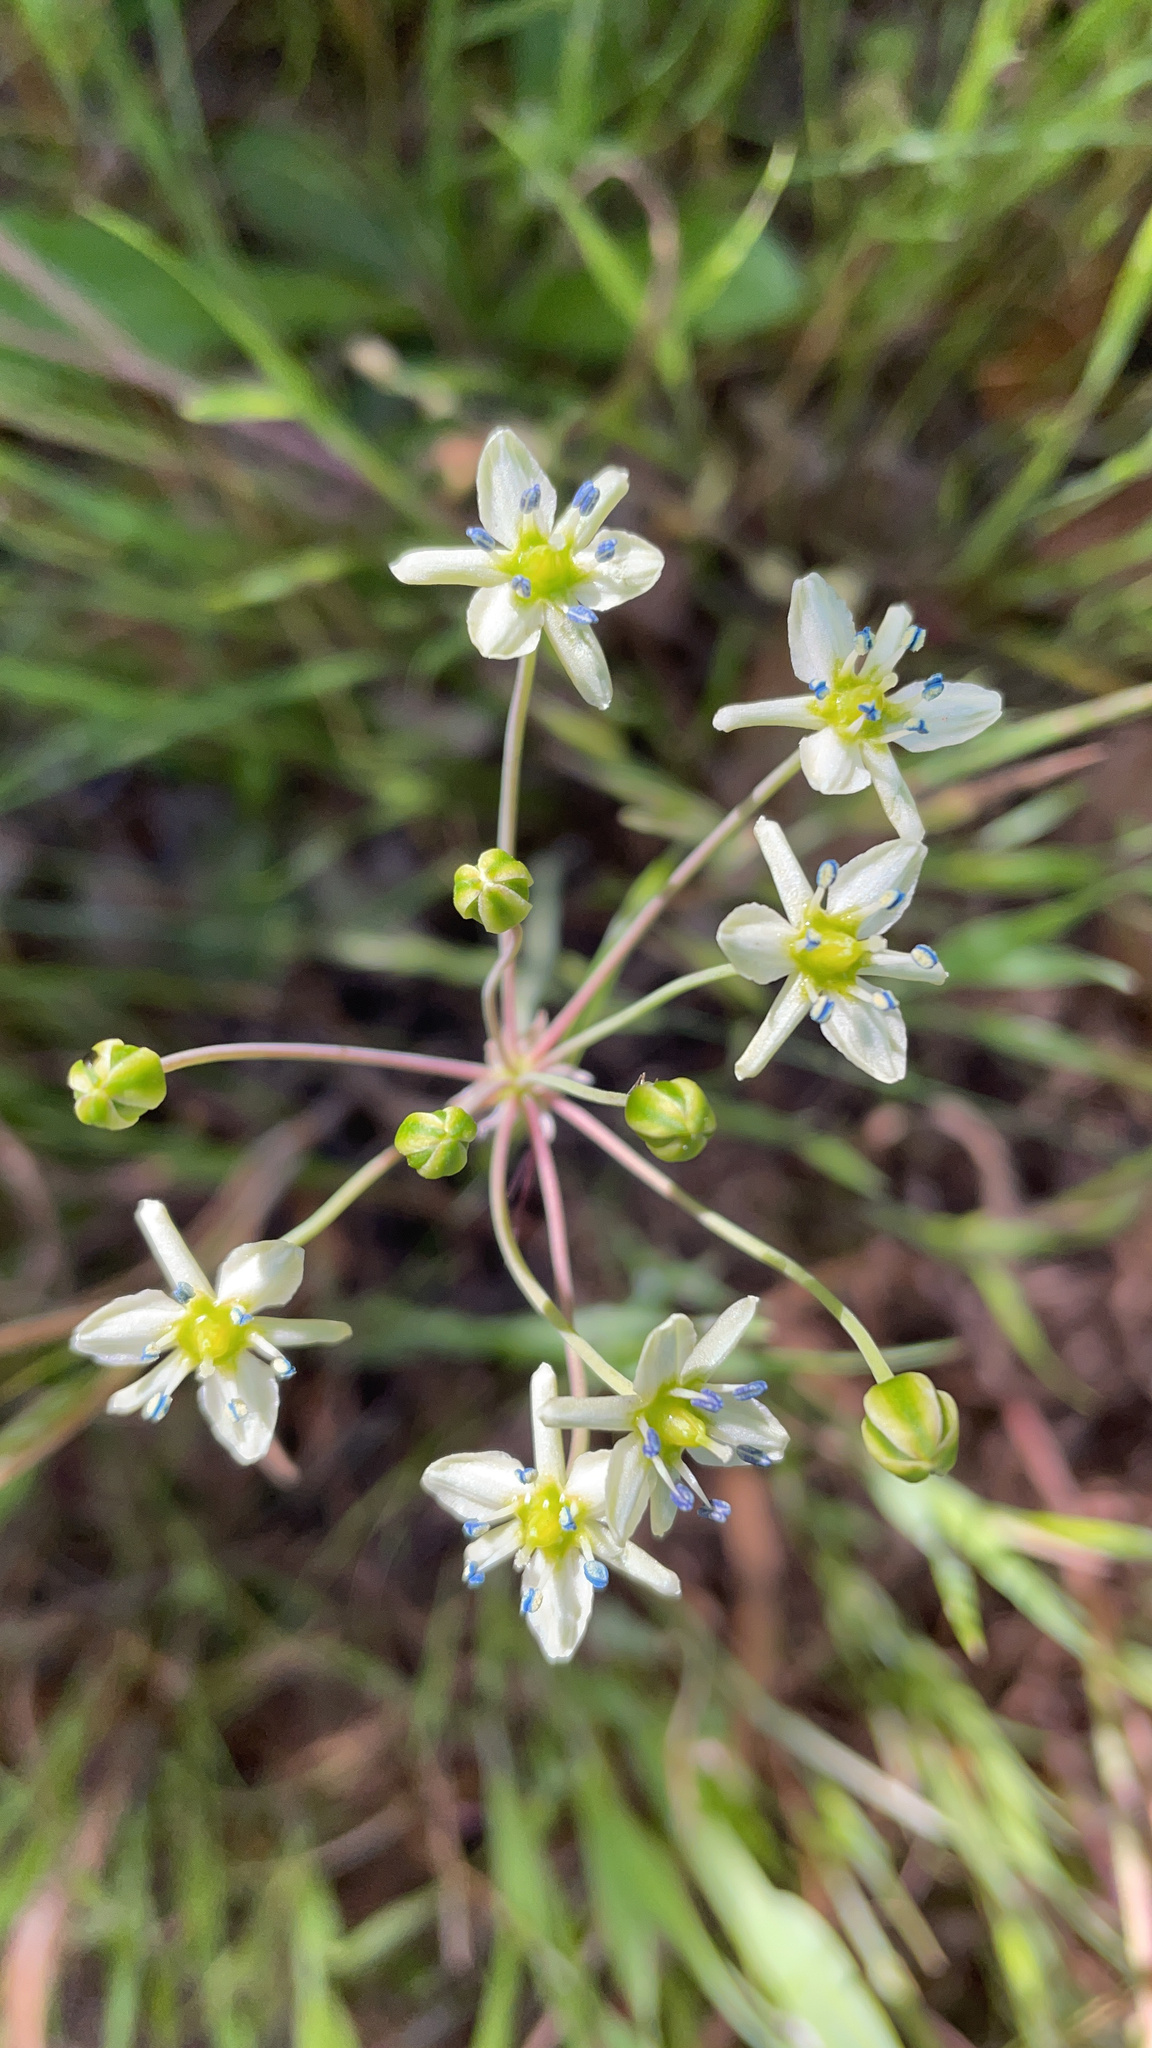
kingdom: Plantae
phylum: Tracheophyta
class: Liliopsida
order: Asparagales
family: Asparagaceae
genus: Muilla
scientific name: Muilla maritima
